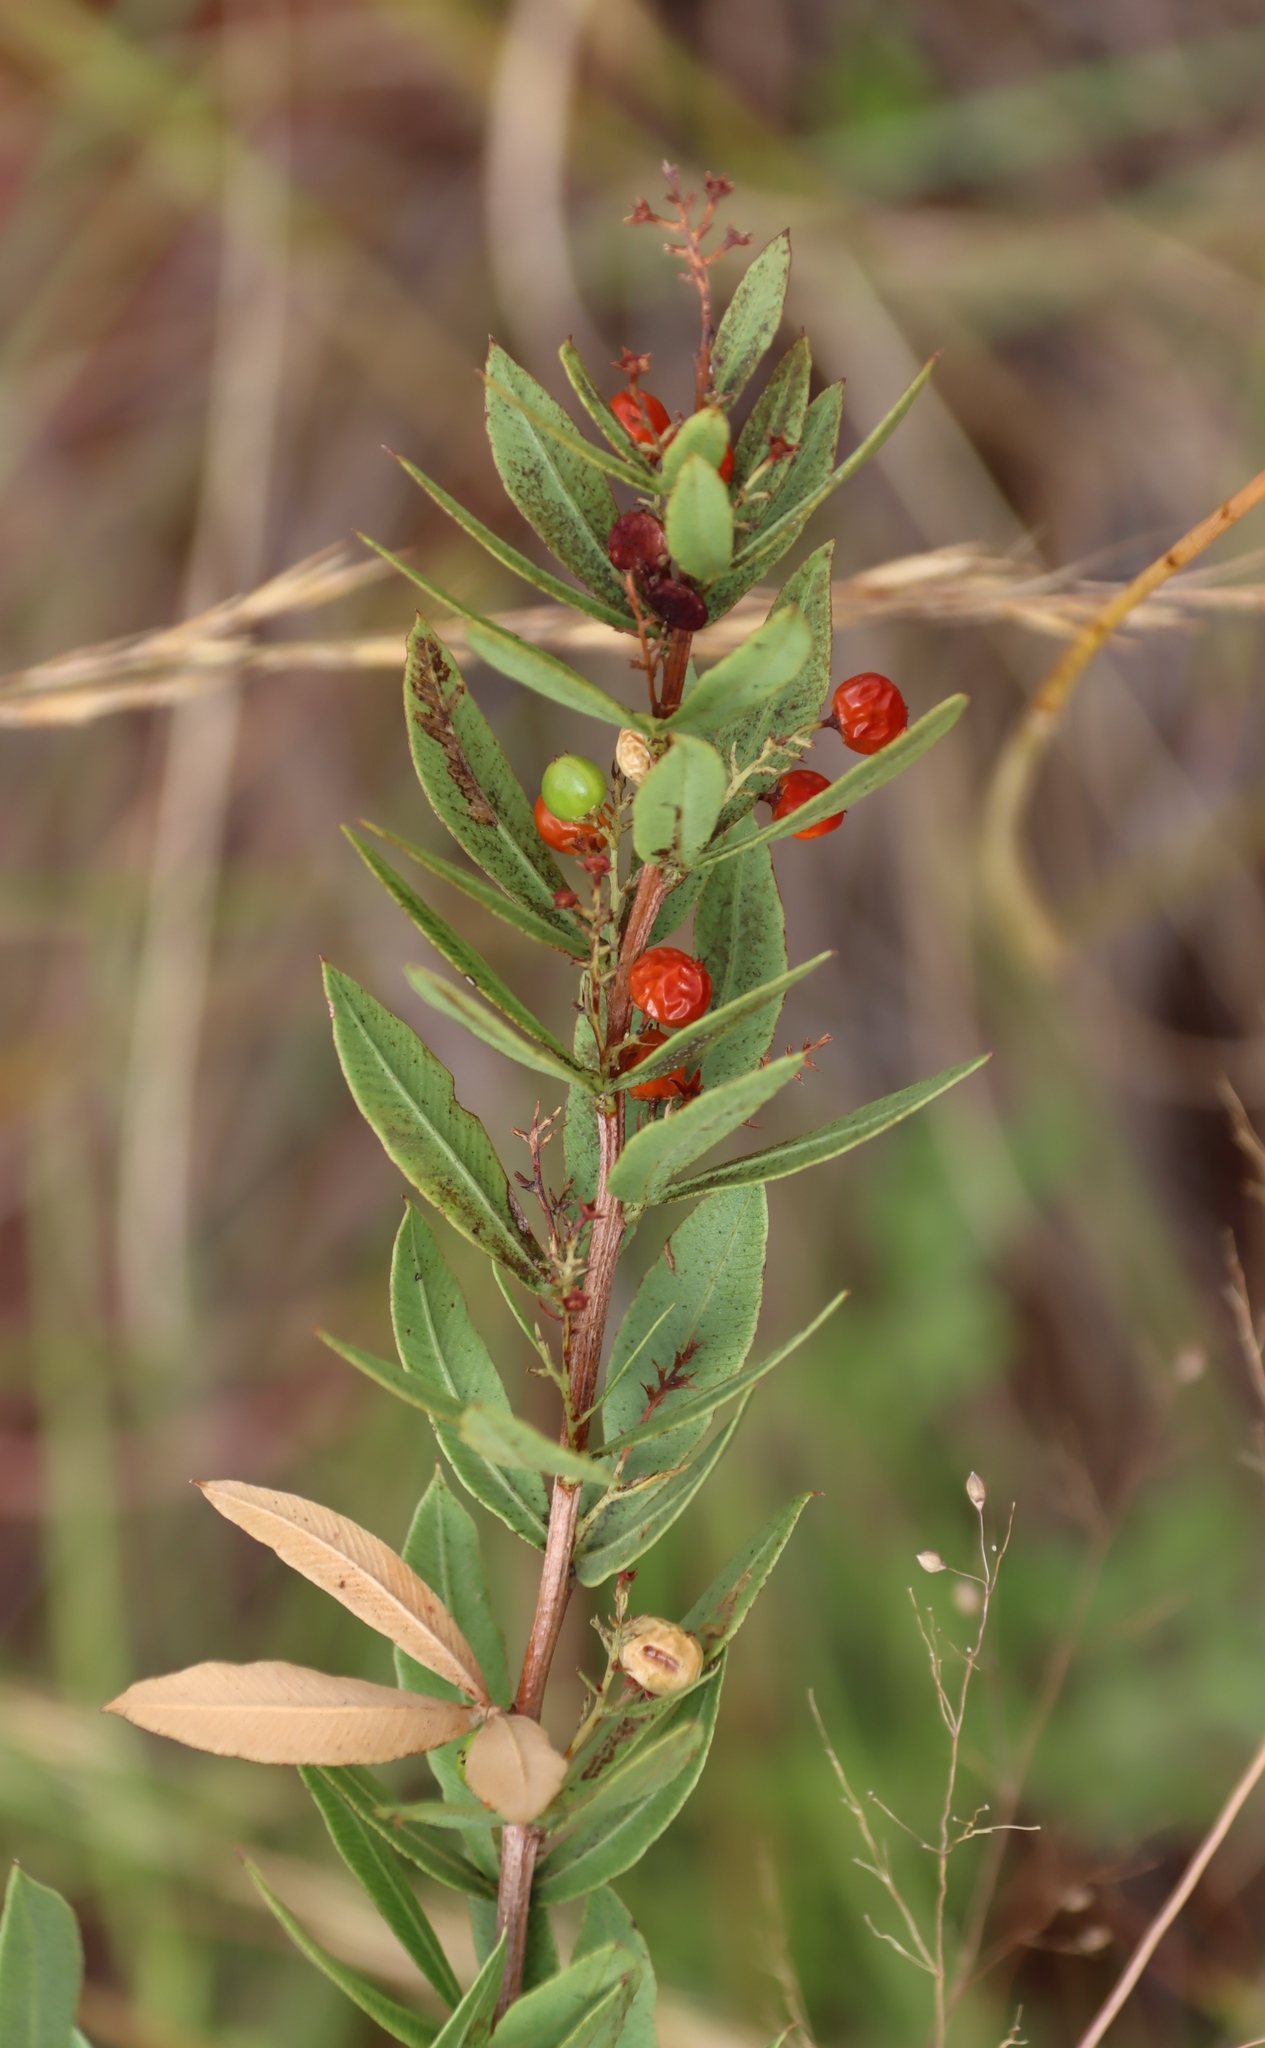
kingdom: Plantae
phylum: Tracheophyta
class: Magnoliopsida
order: Sapindales
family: Anacardiaceae
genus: Searsia
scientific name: Searsia pondoensis
